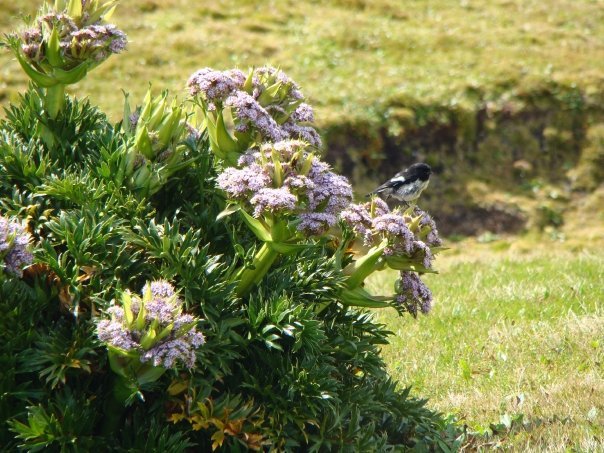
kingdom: Plantae
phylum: Tracheophyta
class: Magnoliopsida
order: Apiales
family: Apiaceae
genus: Anisotome
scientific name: Anisotome latifolia
